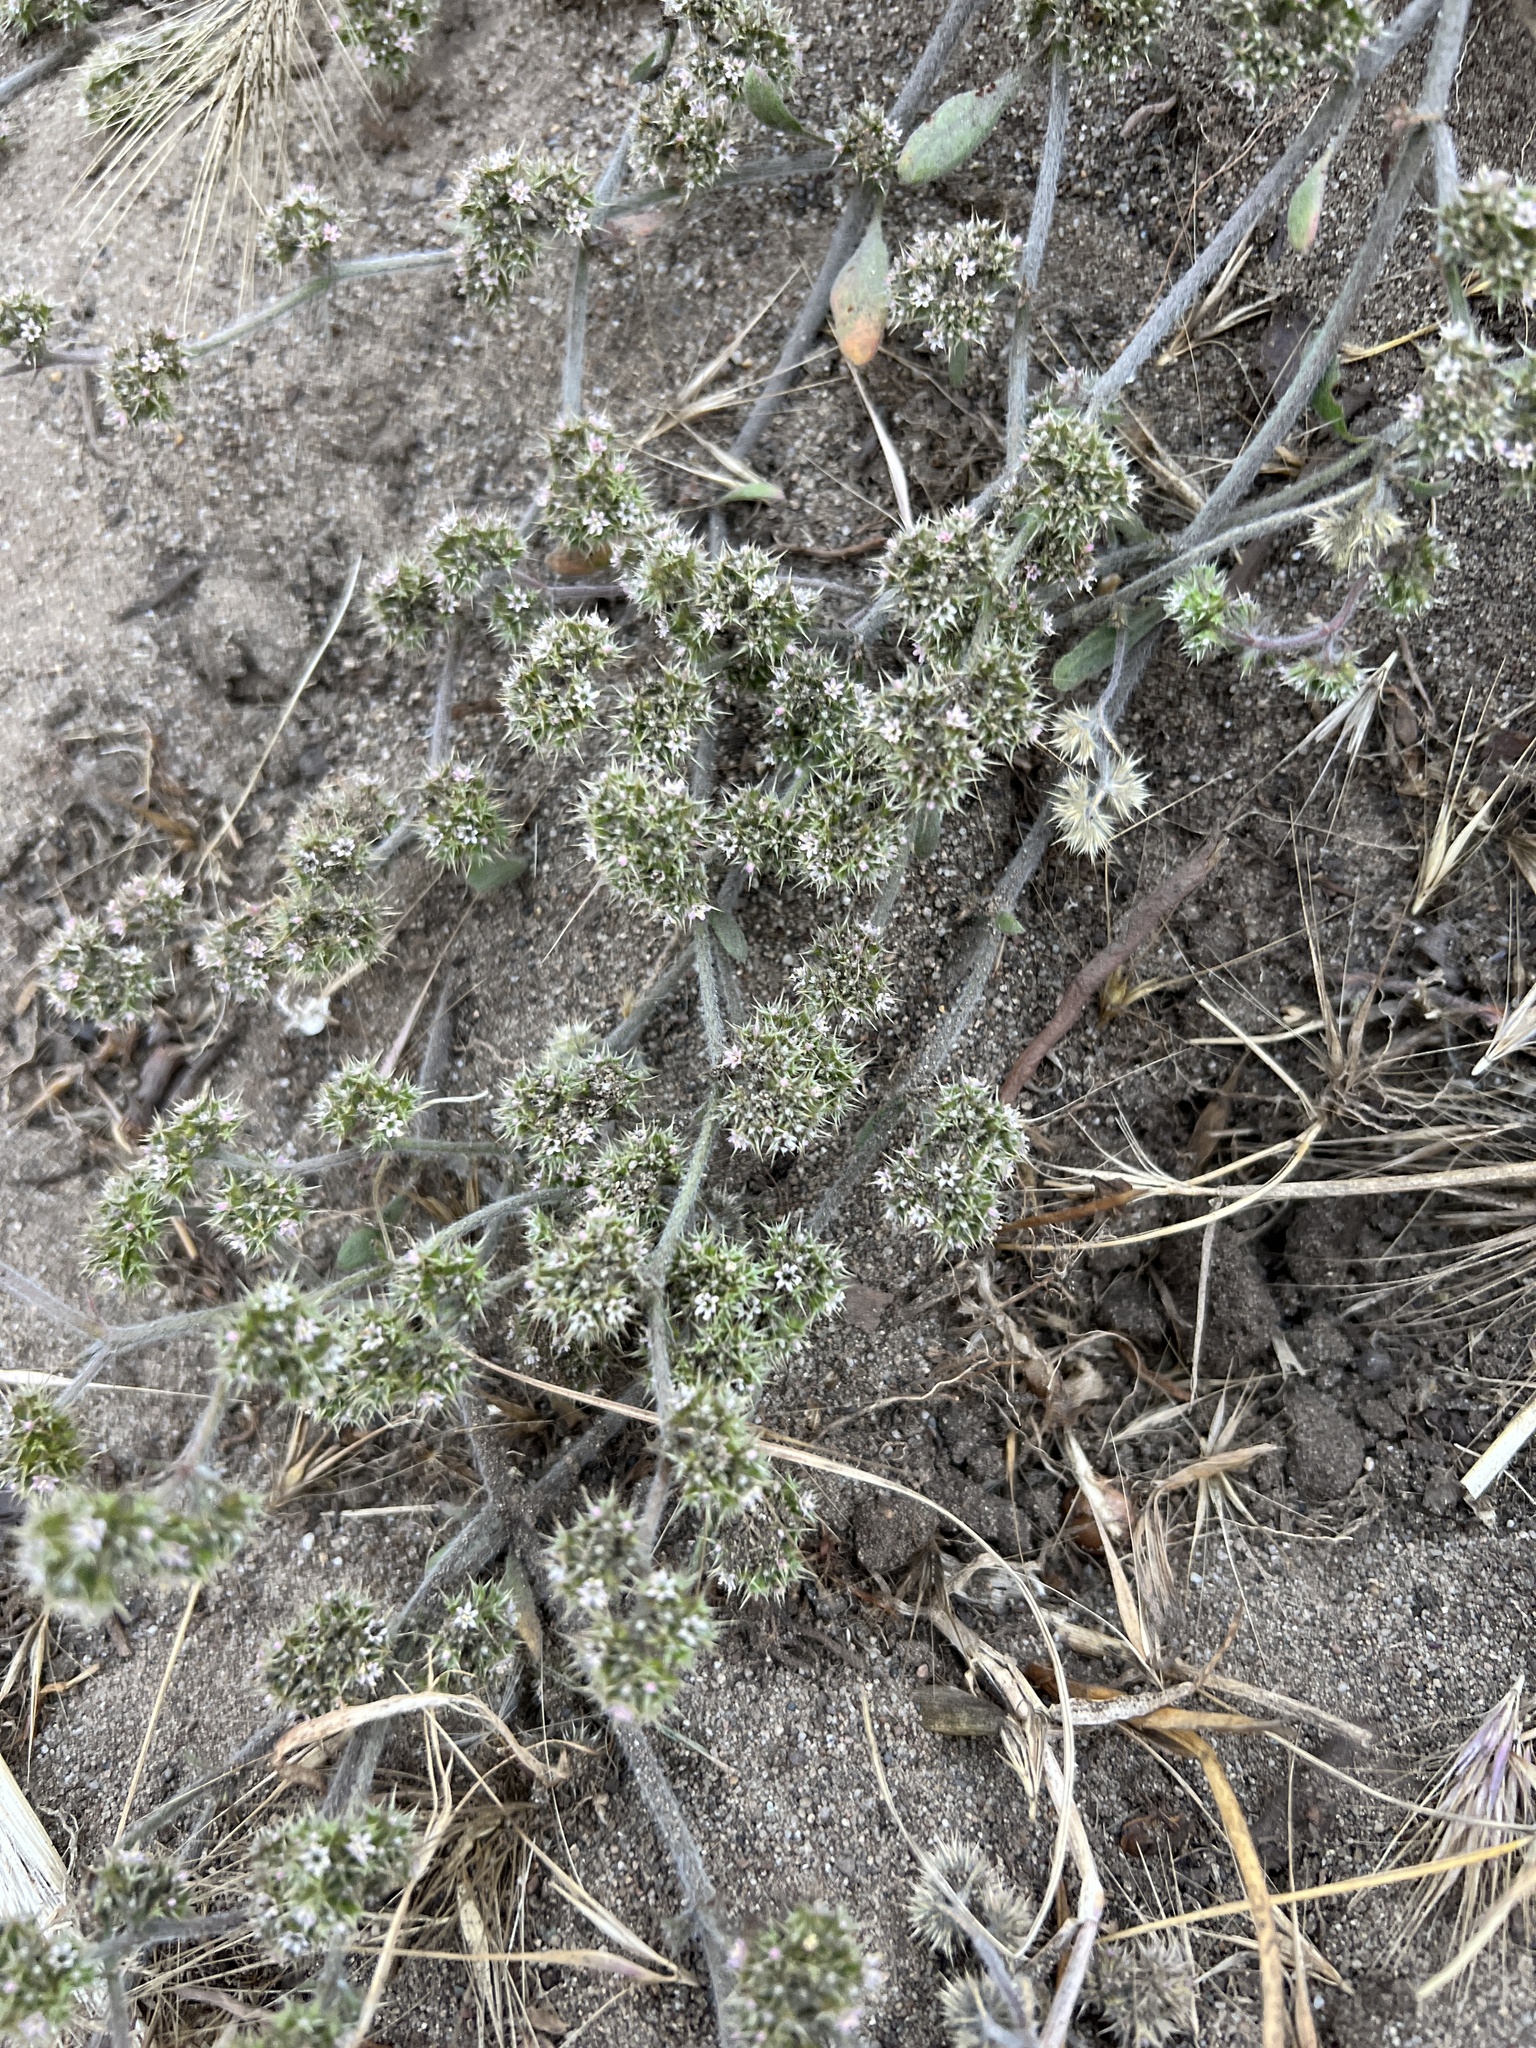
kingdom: Plantae
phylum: Tracheophyta
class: Magnoliopsida
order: Caryophyllales
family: Polygonaceae
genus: Chorizanthe
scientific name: Chorizanthe cuspidata
